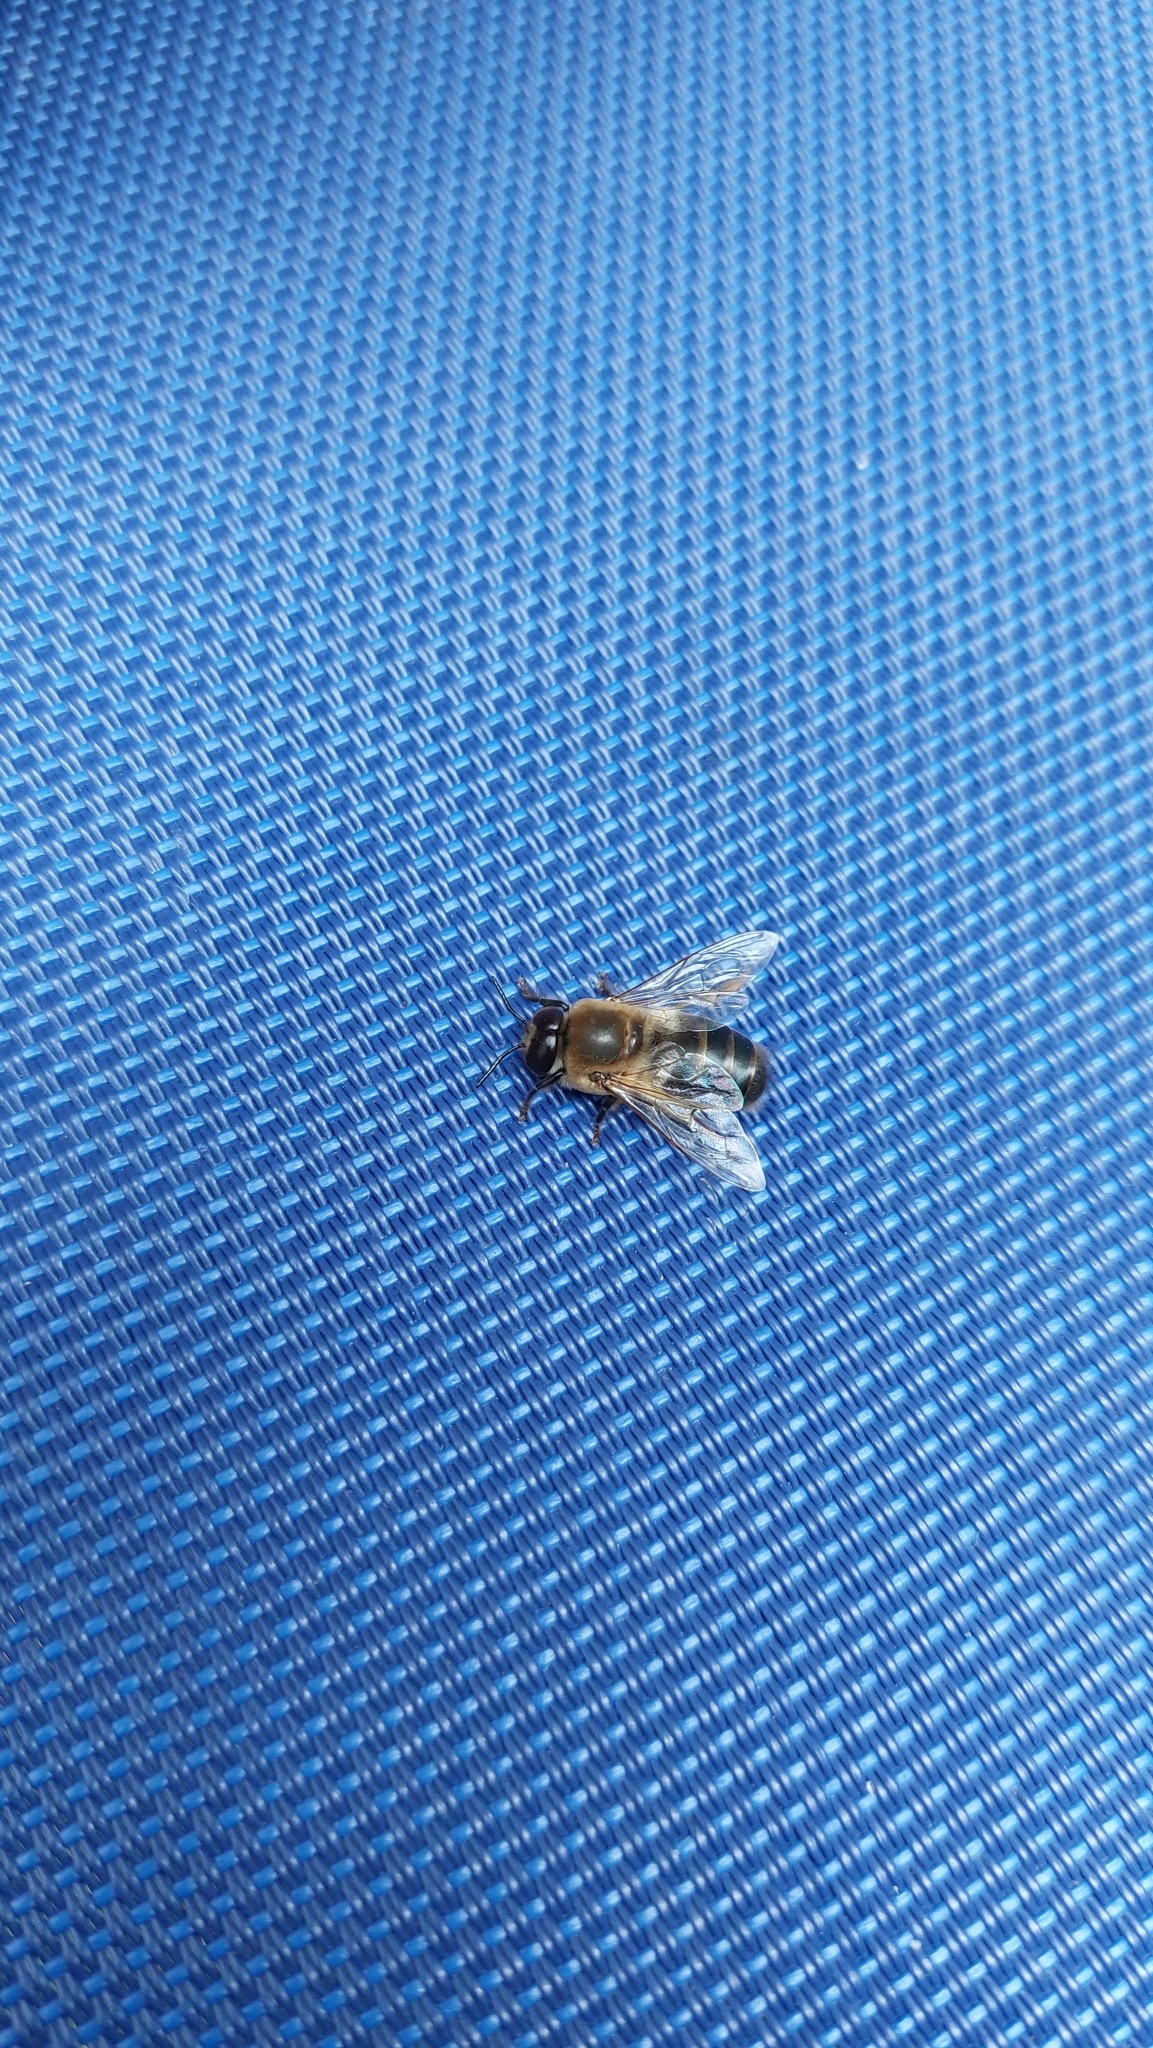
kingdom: Animalia
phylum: Arthropoda
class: Insecta
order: Hymenoptera
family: Apidae
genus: Apis
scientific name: Apis mellifera
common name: Honey bee
